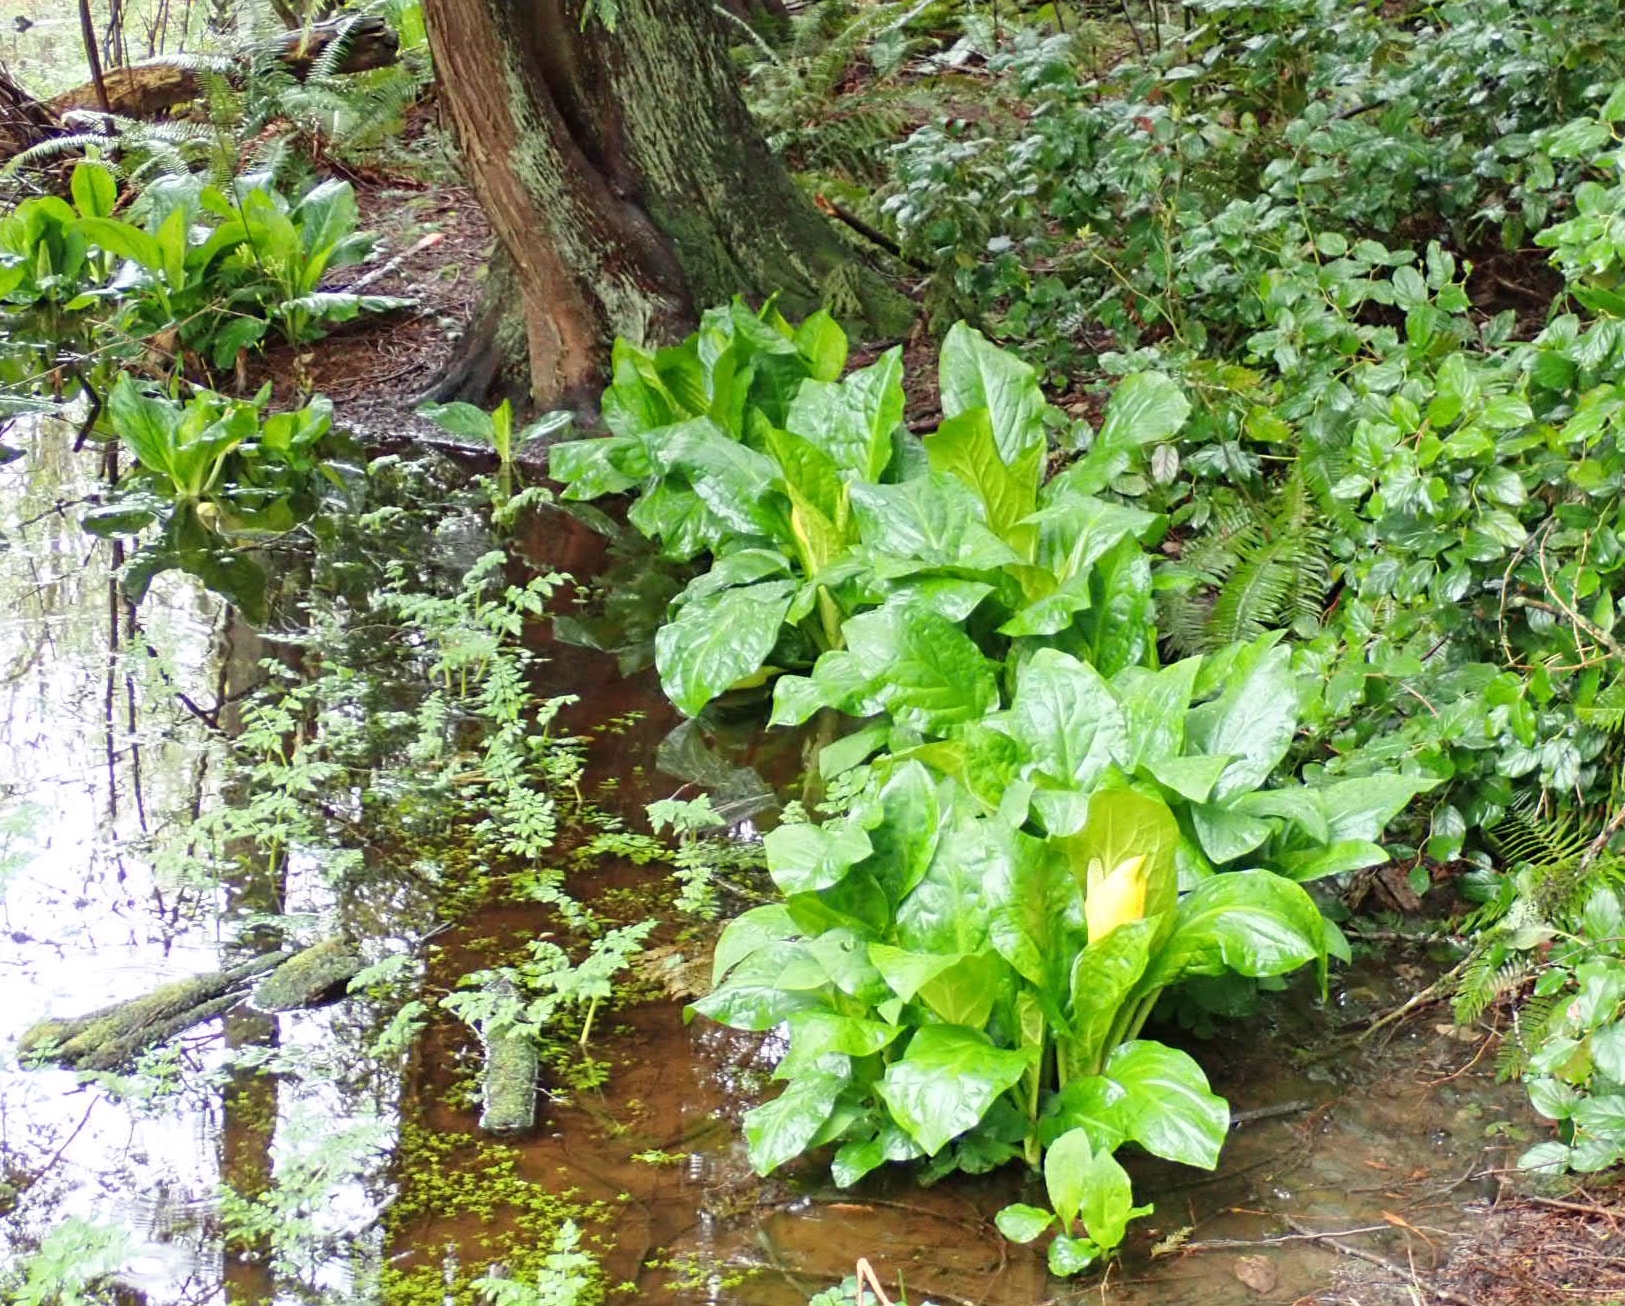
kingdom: Plantae
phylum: Tracheophyta
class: Liliopsida
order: Alismatales
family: Araceae
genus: Lysichiton
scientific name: Lysichiton americanus
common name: American skunk cabbage
